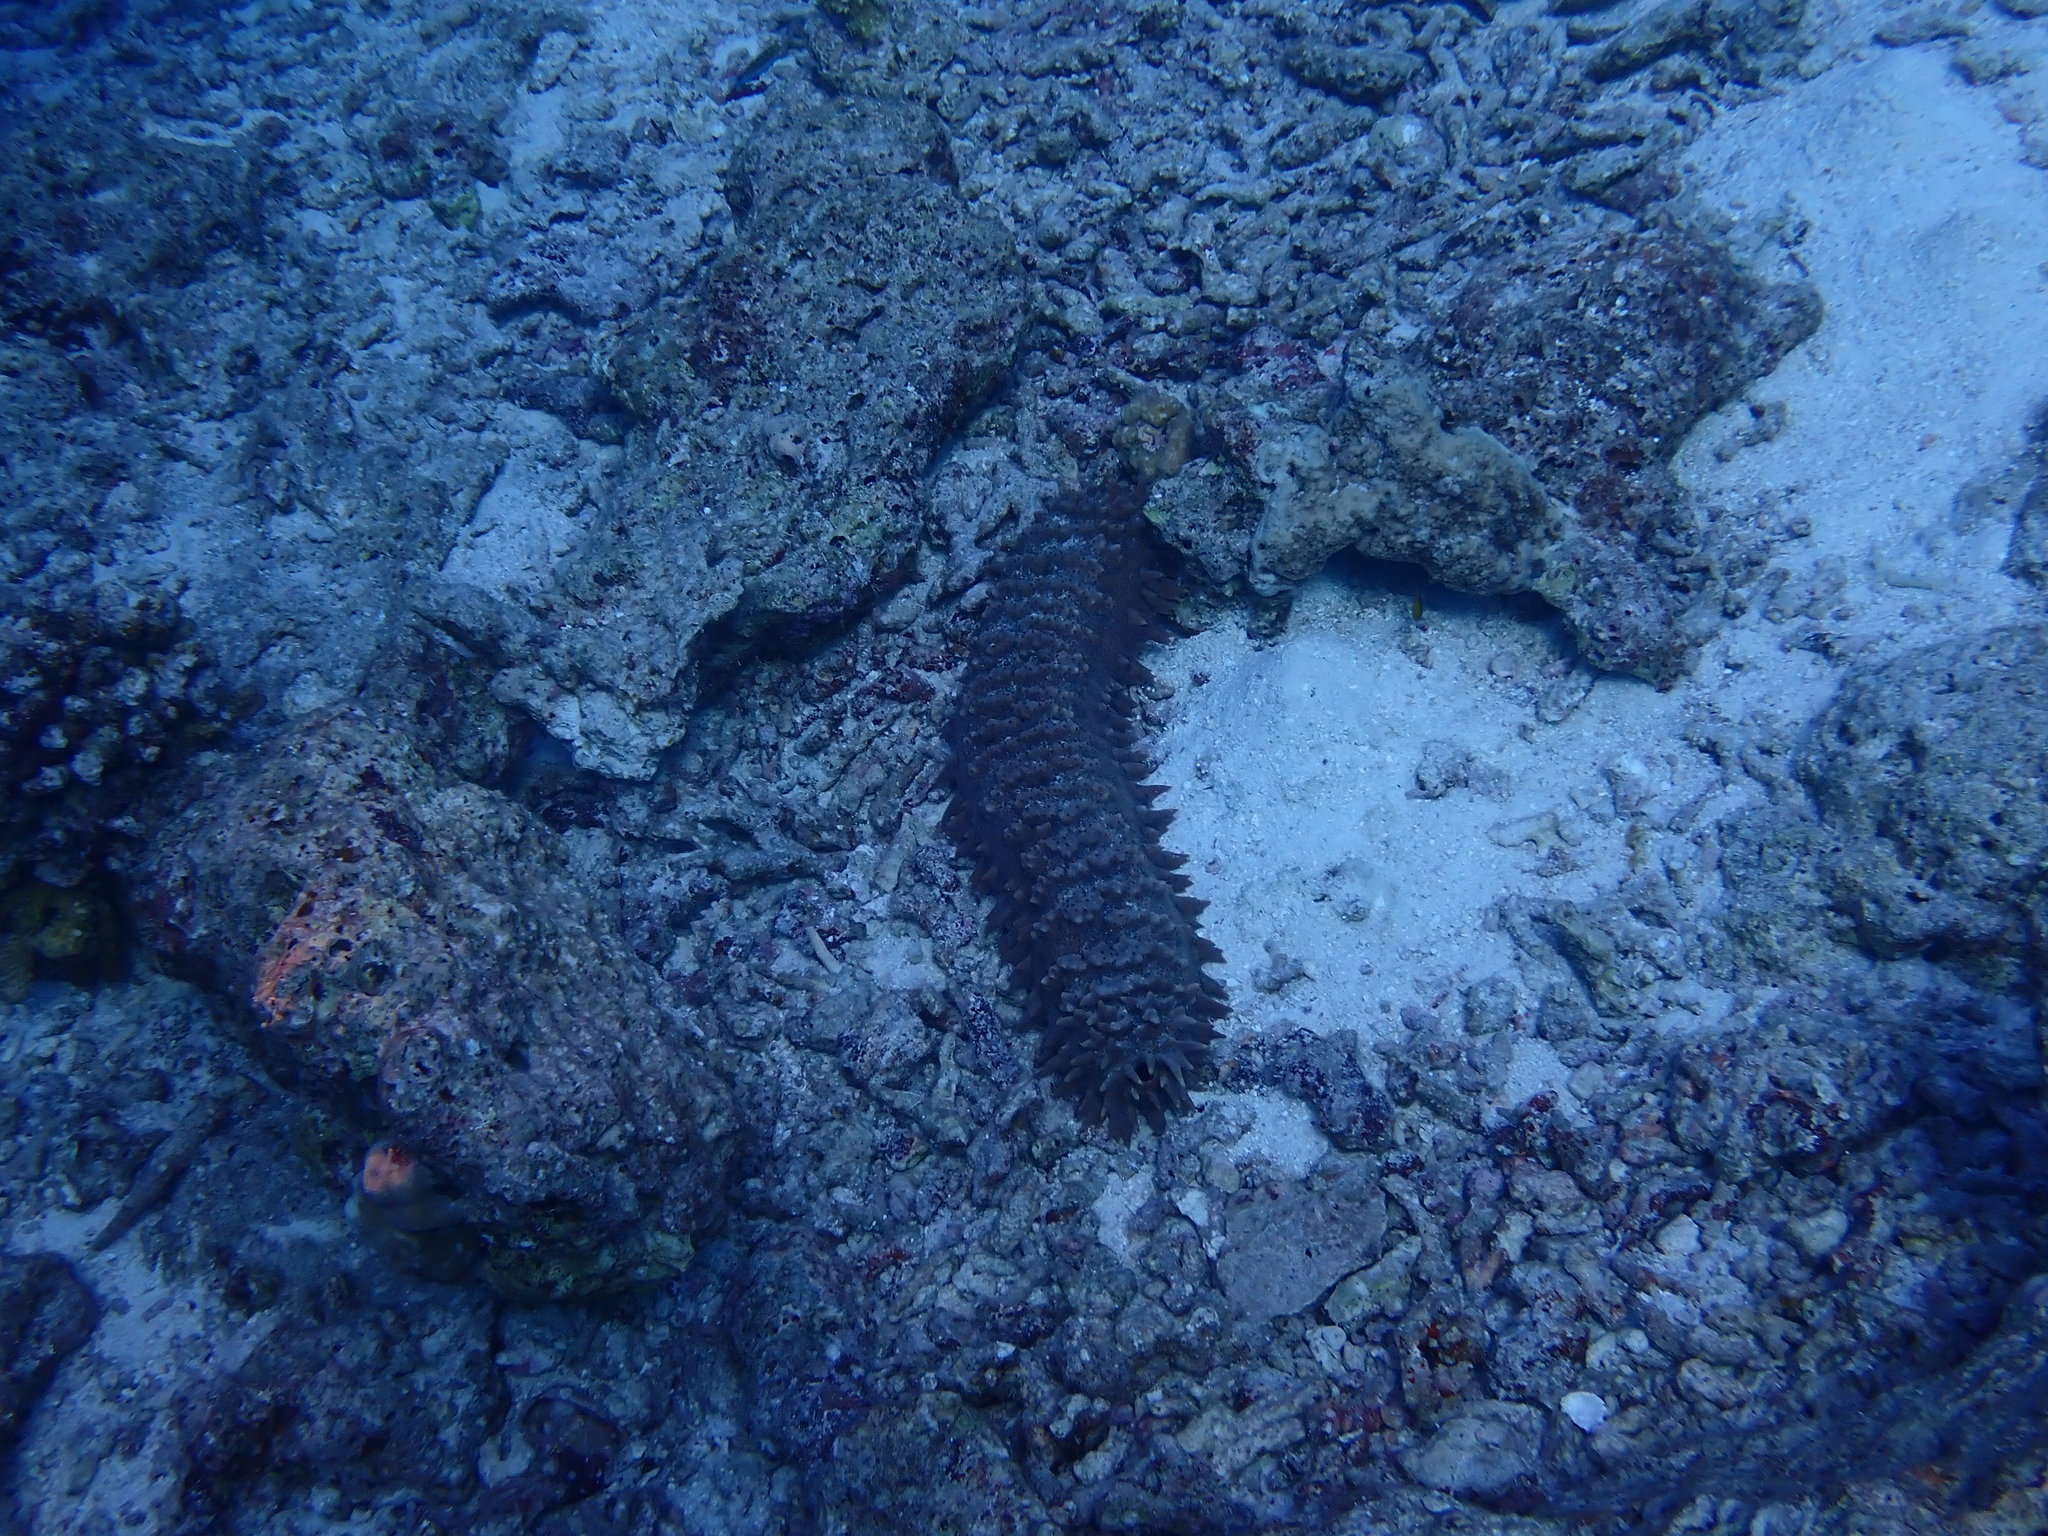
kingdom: Animalia
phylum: Echinodermata
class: Holothuroidea
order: Synallactida
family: Stichopodidae
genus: Thelenota
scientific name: Thelenota ananas
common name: Prickly redfish
